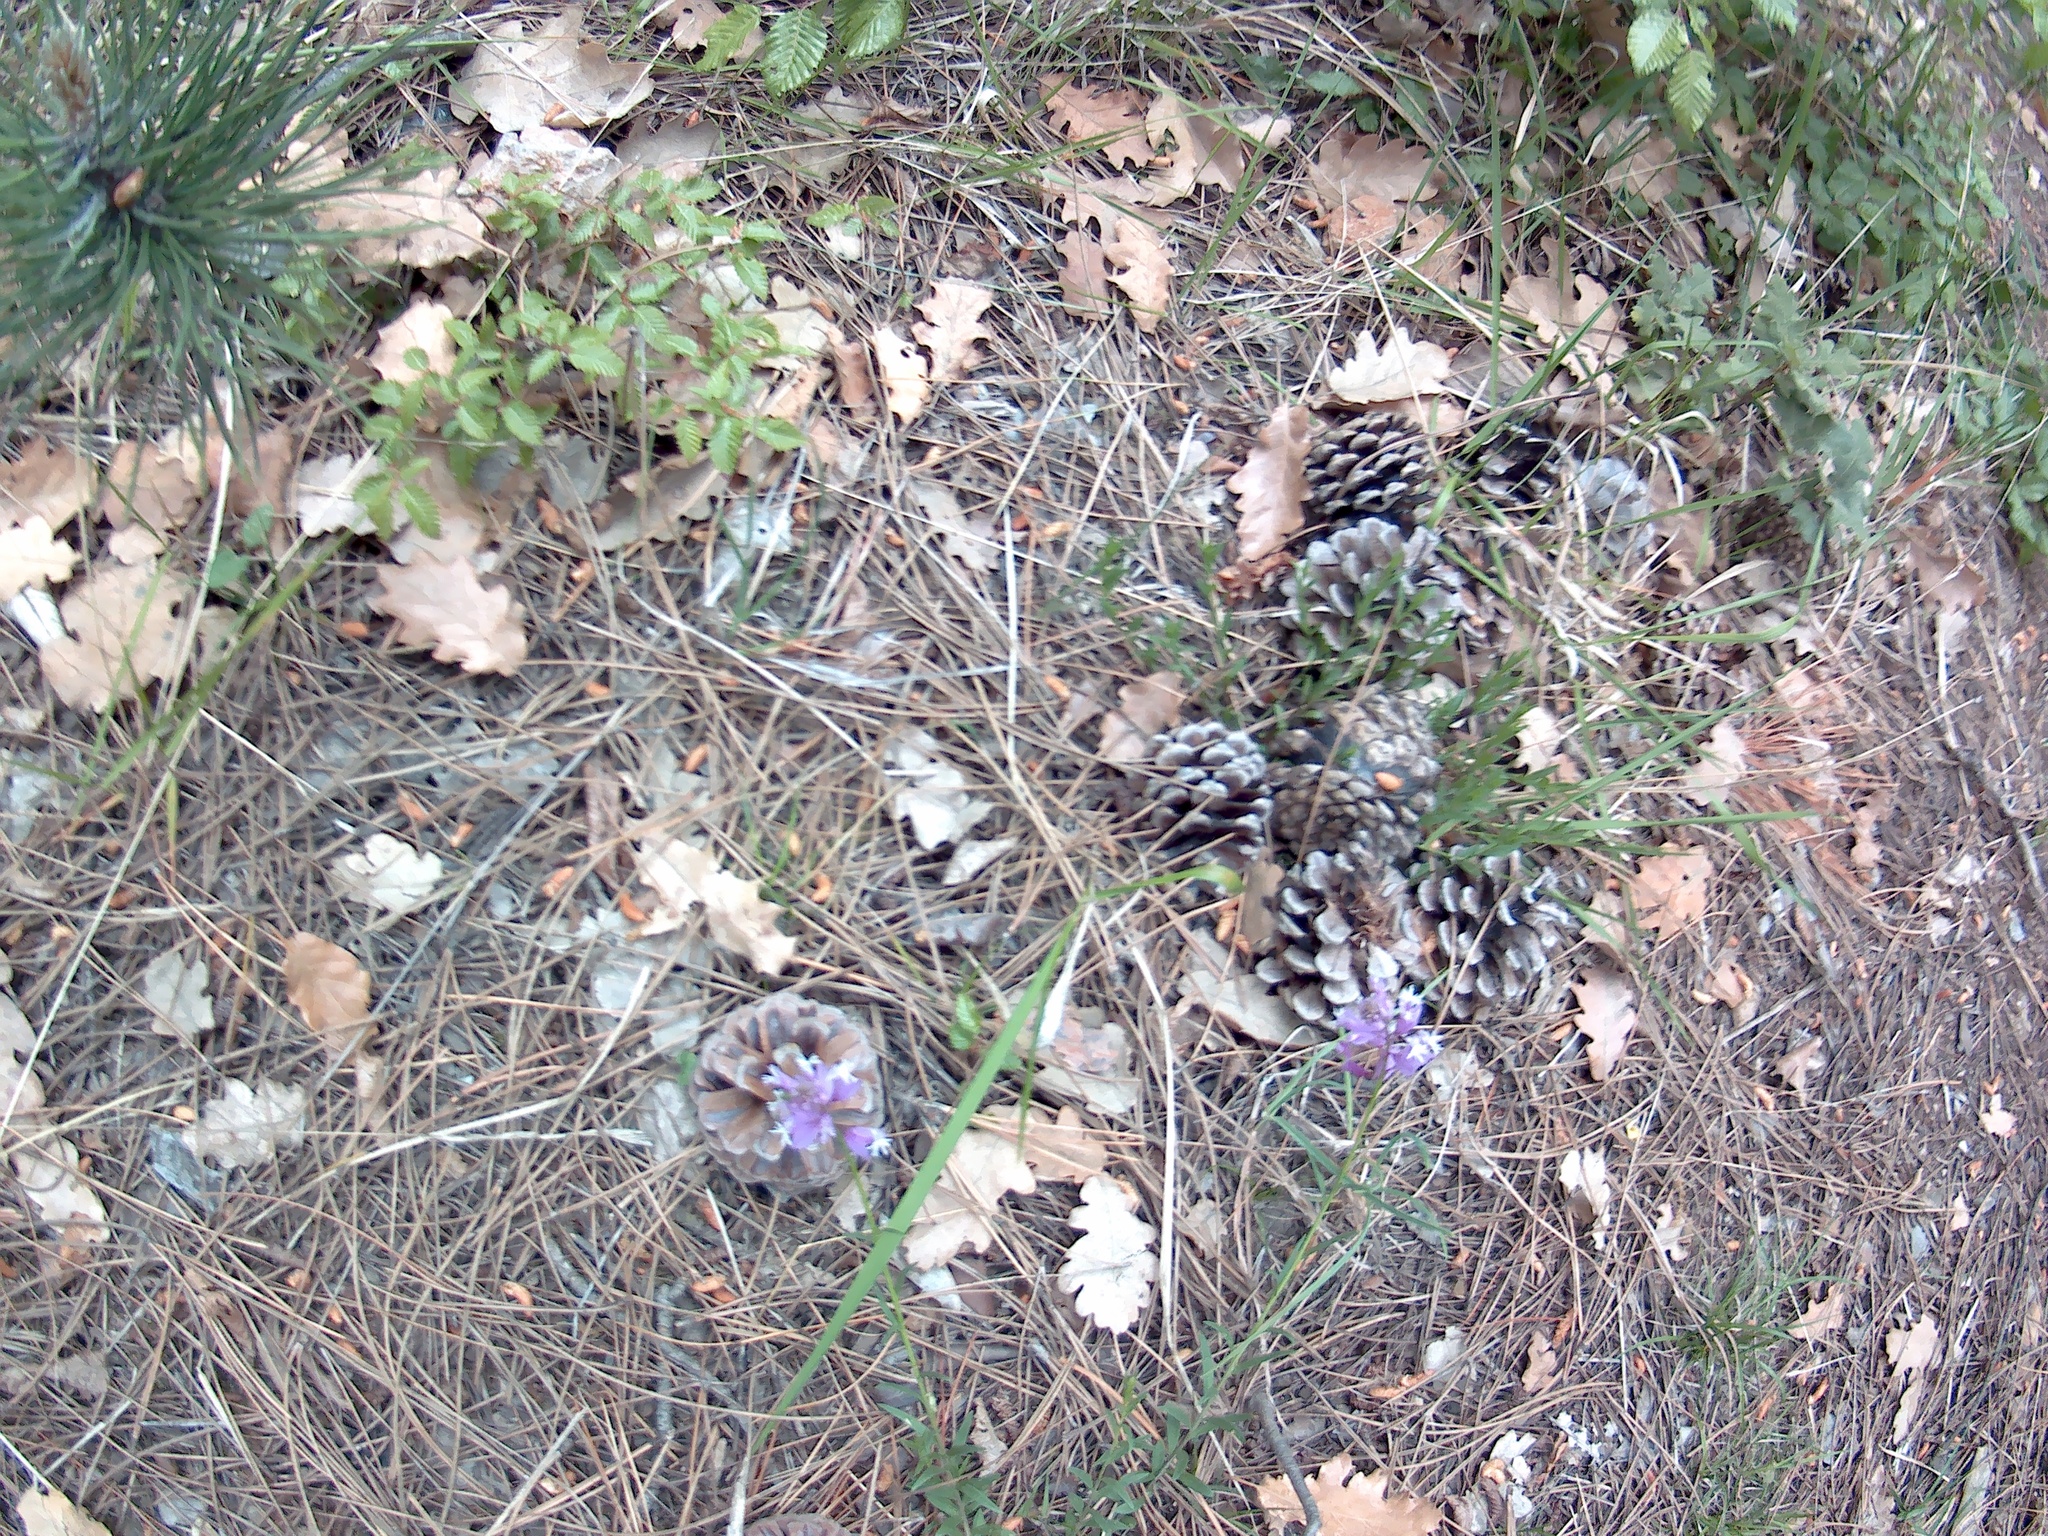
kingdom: Plantae
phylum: Tracheophyta
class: Magnoliopsida
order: Fabales
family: Polygalaceae
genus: Polygala
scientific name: Polygala major
